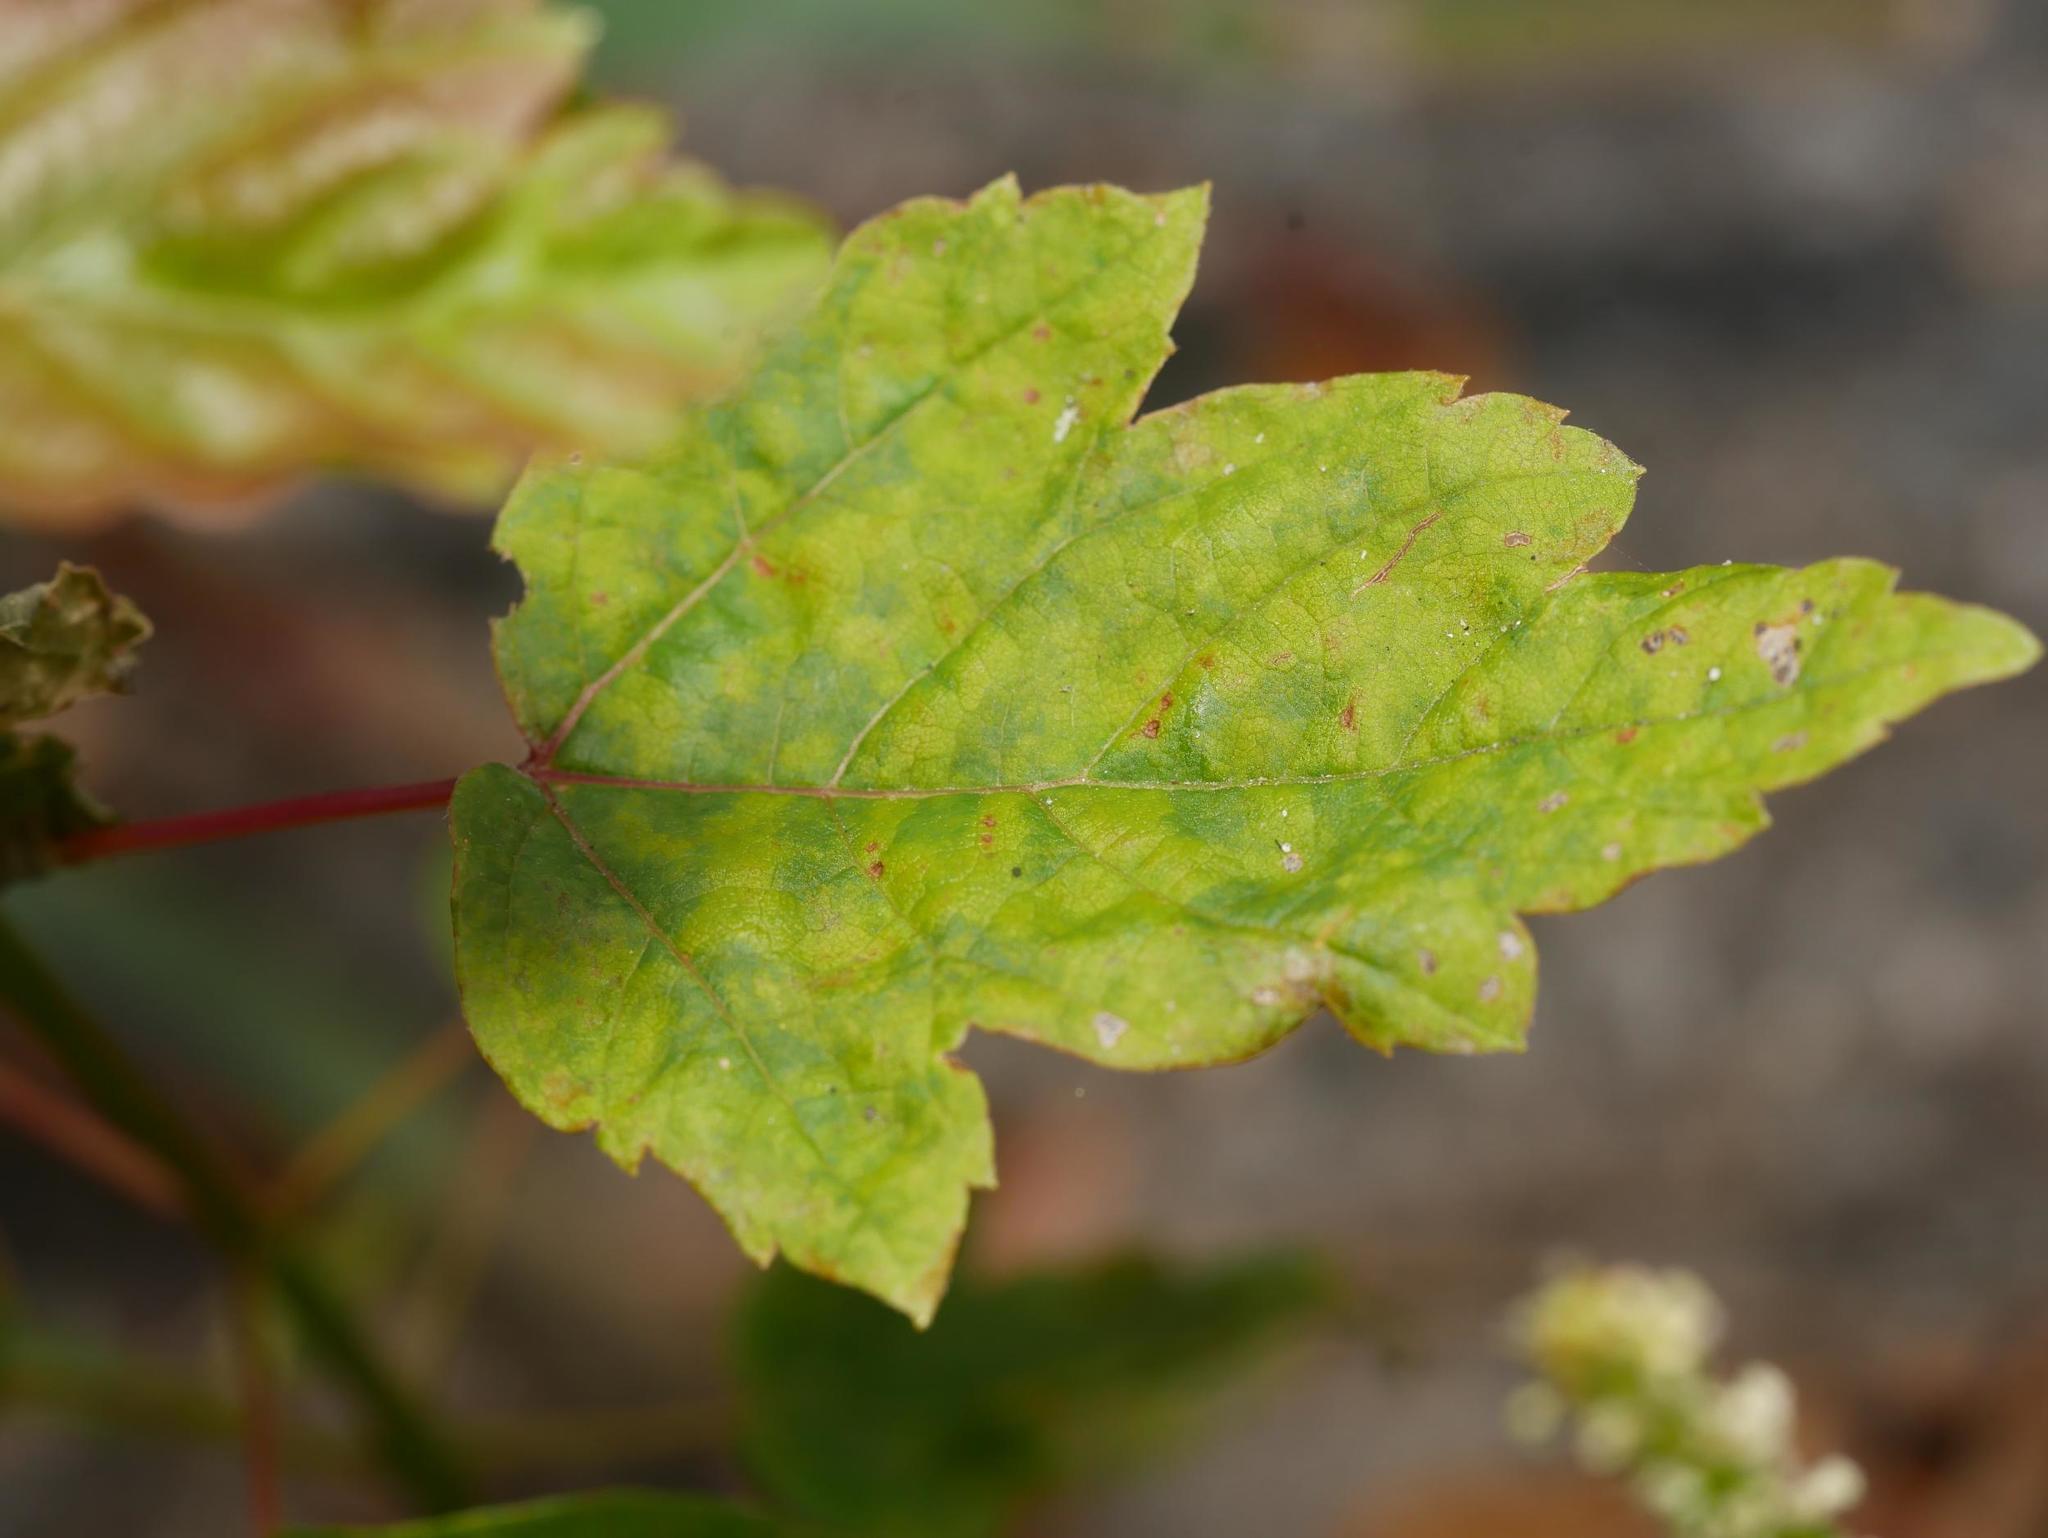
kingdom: Plantae
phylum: Tracheophyta
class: Magnoliopsida
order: Sapindales
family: Sapindaceae
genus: Acer
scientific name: Acer pseudoplatanus
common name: Sycamore
